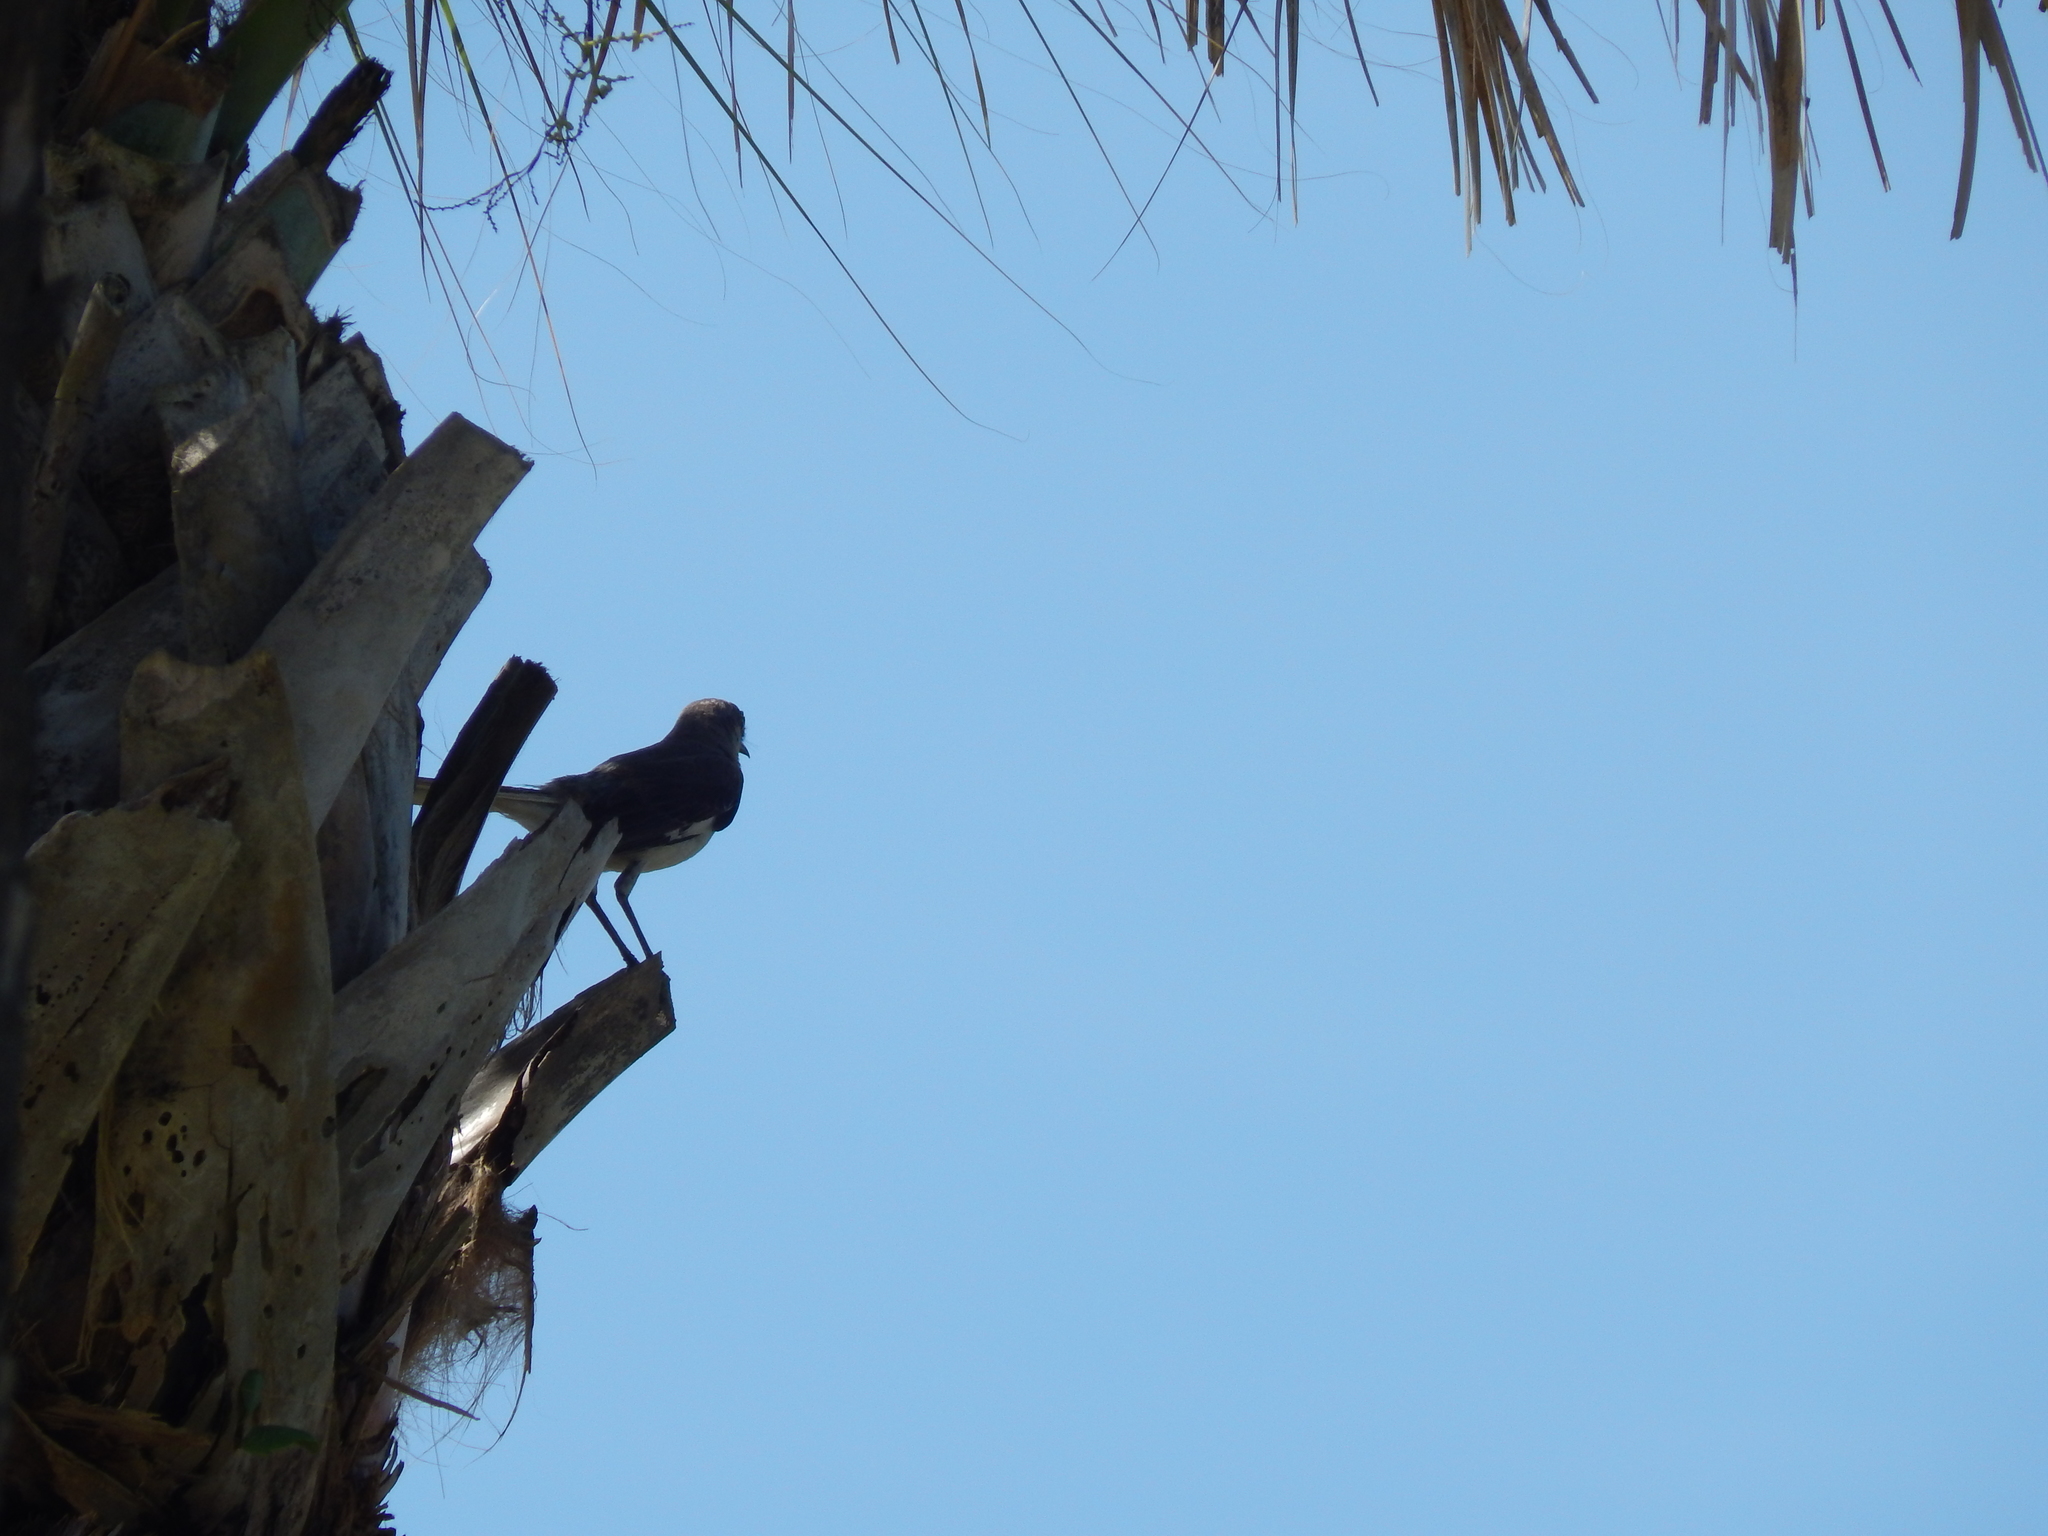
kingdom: Animalia
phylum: Chordata
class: Aves
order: Passeriformes
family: Mimidae
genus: Mimus
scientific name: Mimus polyglottos
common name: Northern mockingbird
